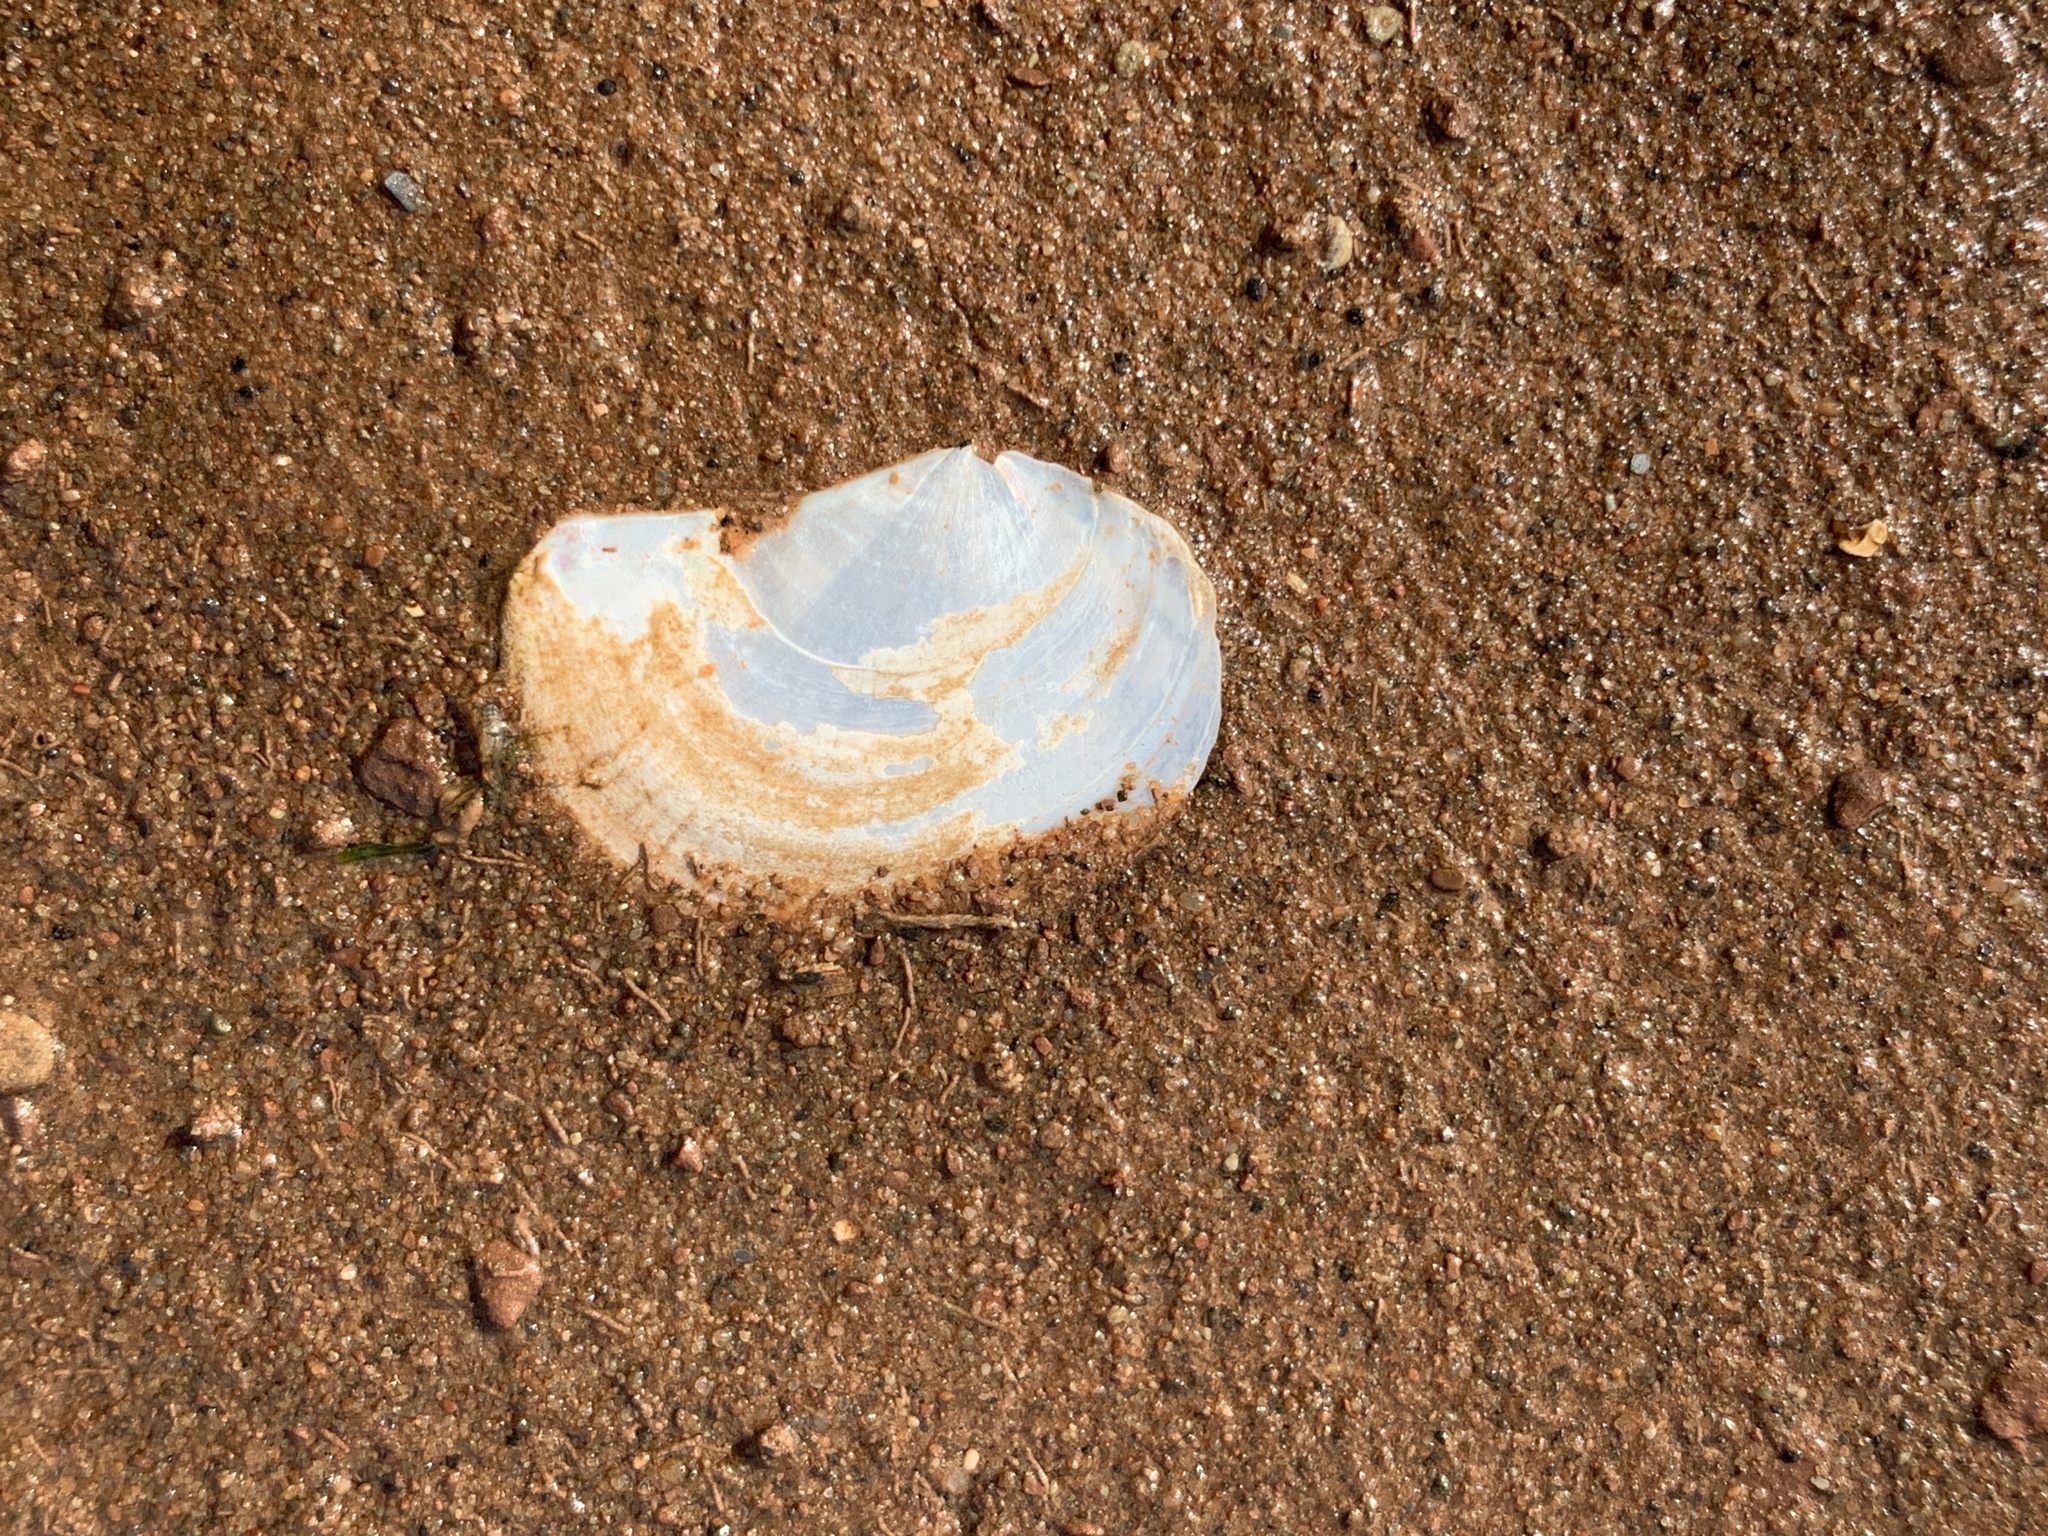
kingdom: Animalia
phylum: Mollusca
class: Bivalvia
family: Pandoridae
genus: Pandora
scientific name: Pandora gouldiana
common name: Rounded pandora
